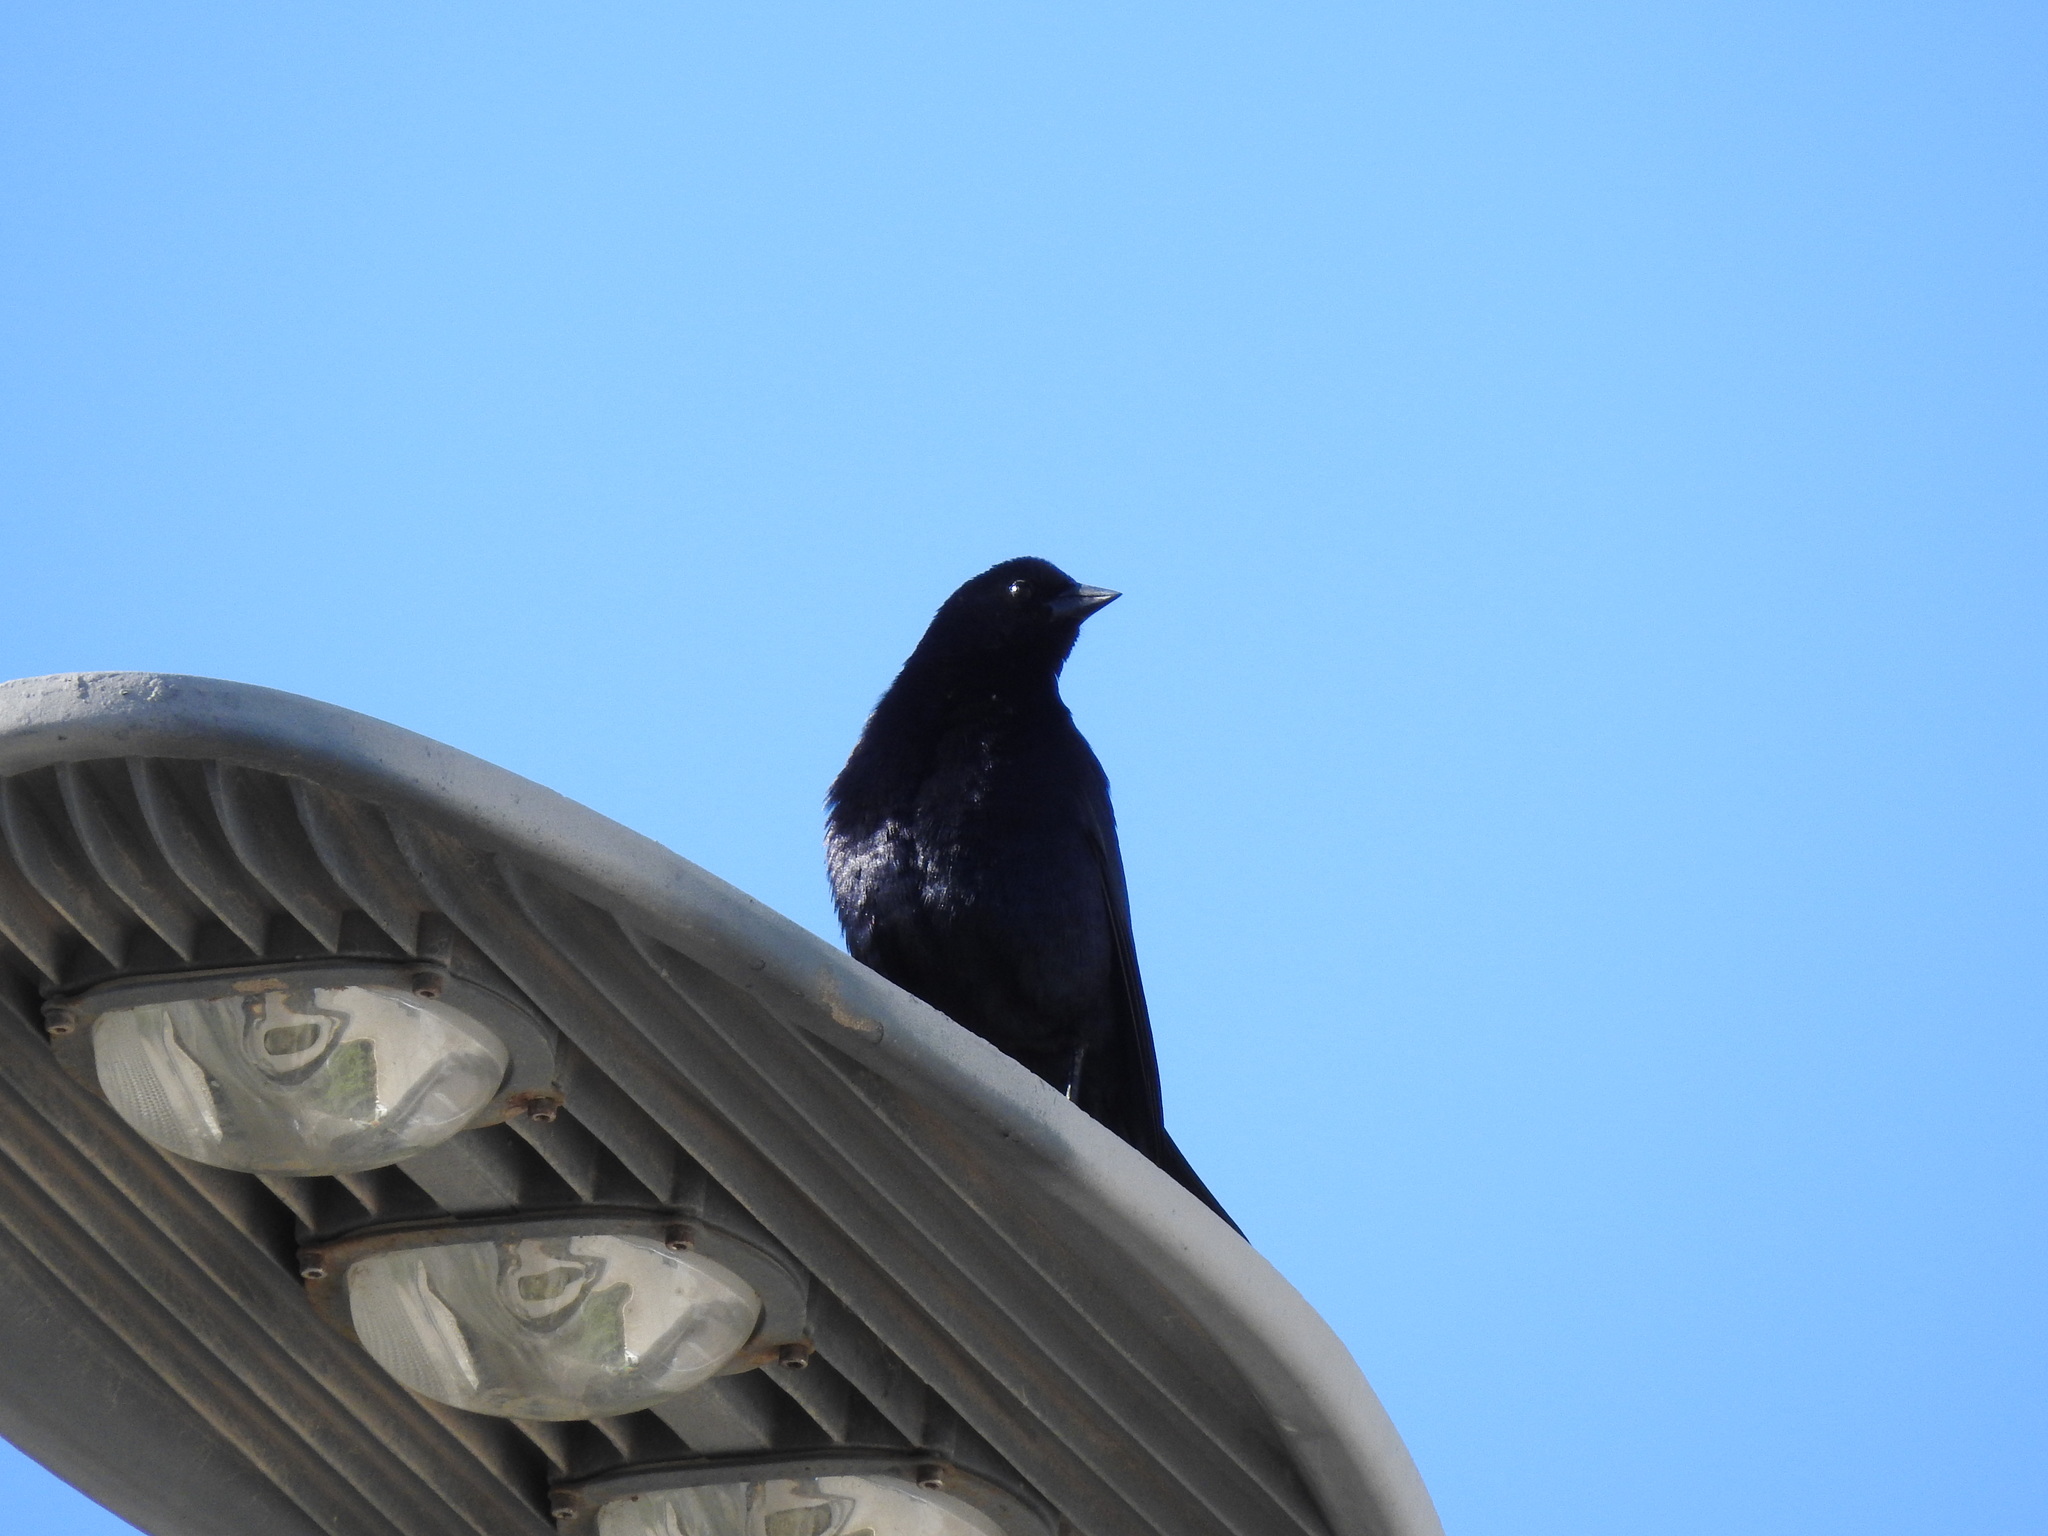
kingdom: Animalia
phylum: Chordata
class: Aves
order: Passeriformes
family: Icteridae
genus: Molothrus
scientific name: Molothrus bonariensis
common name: Shiny cowbird
